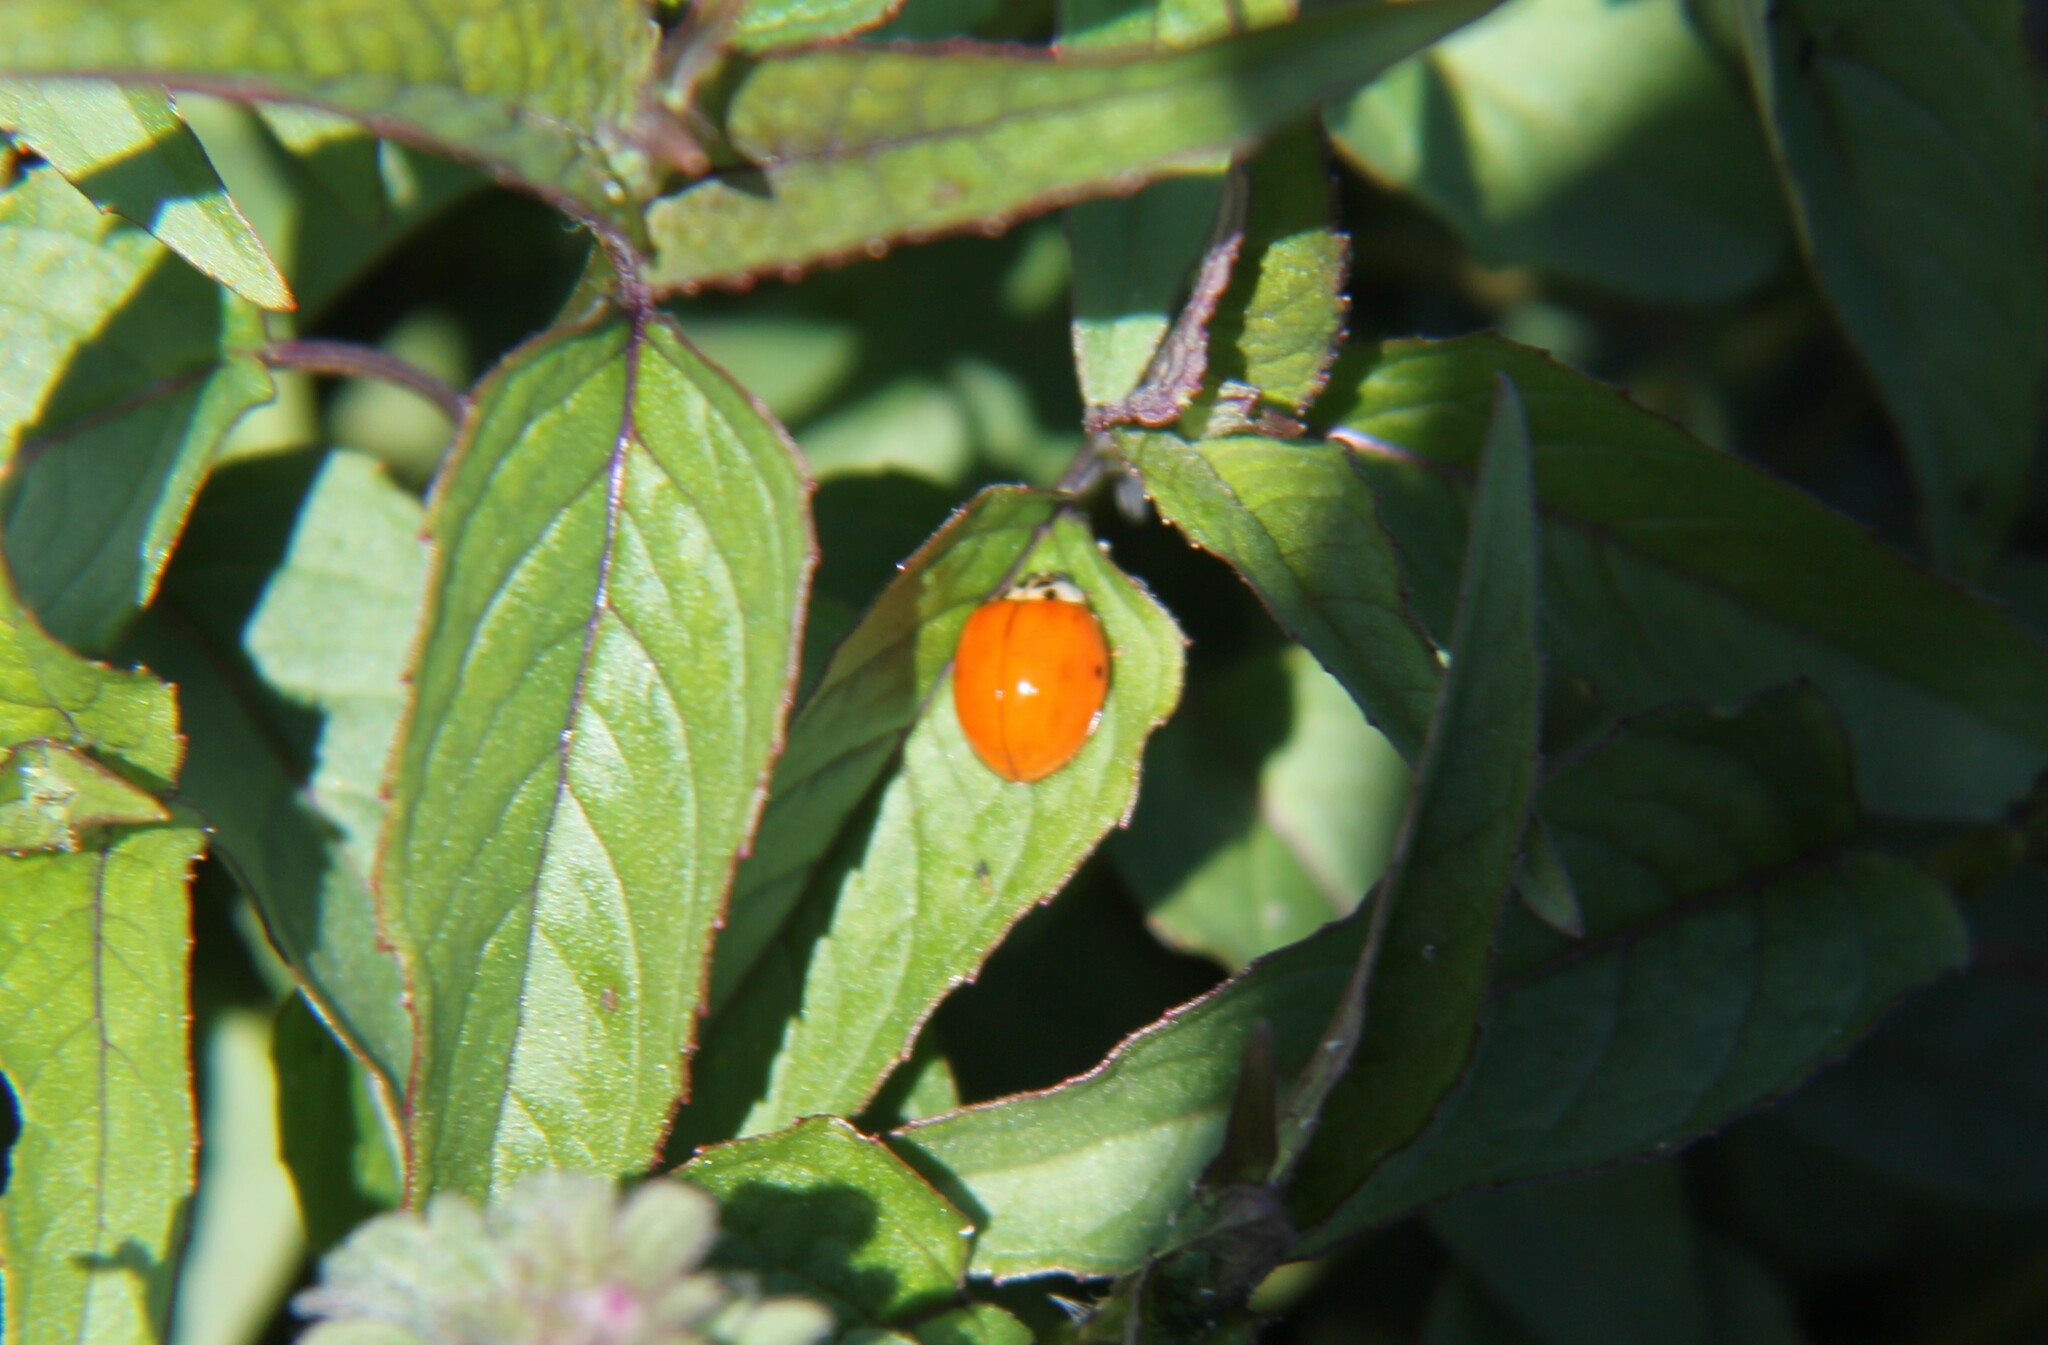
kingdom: Animalia
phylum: Arthropoda
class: Insecta
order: Coleoptera
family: Coccinellidae
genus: Harmonia
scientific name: Harmonia axyridis
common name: Harlequin ladybird
